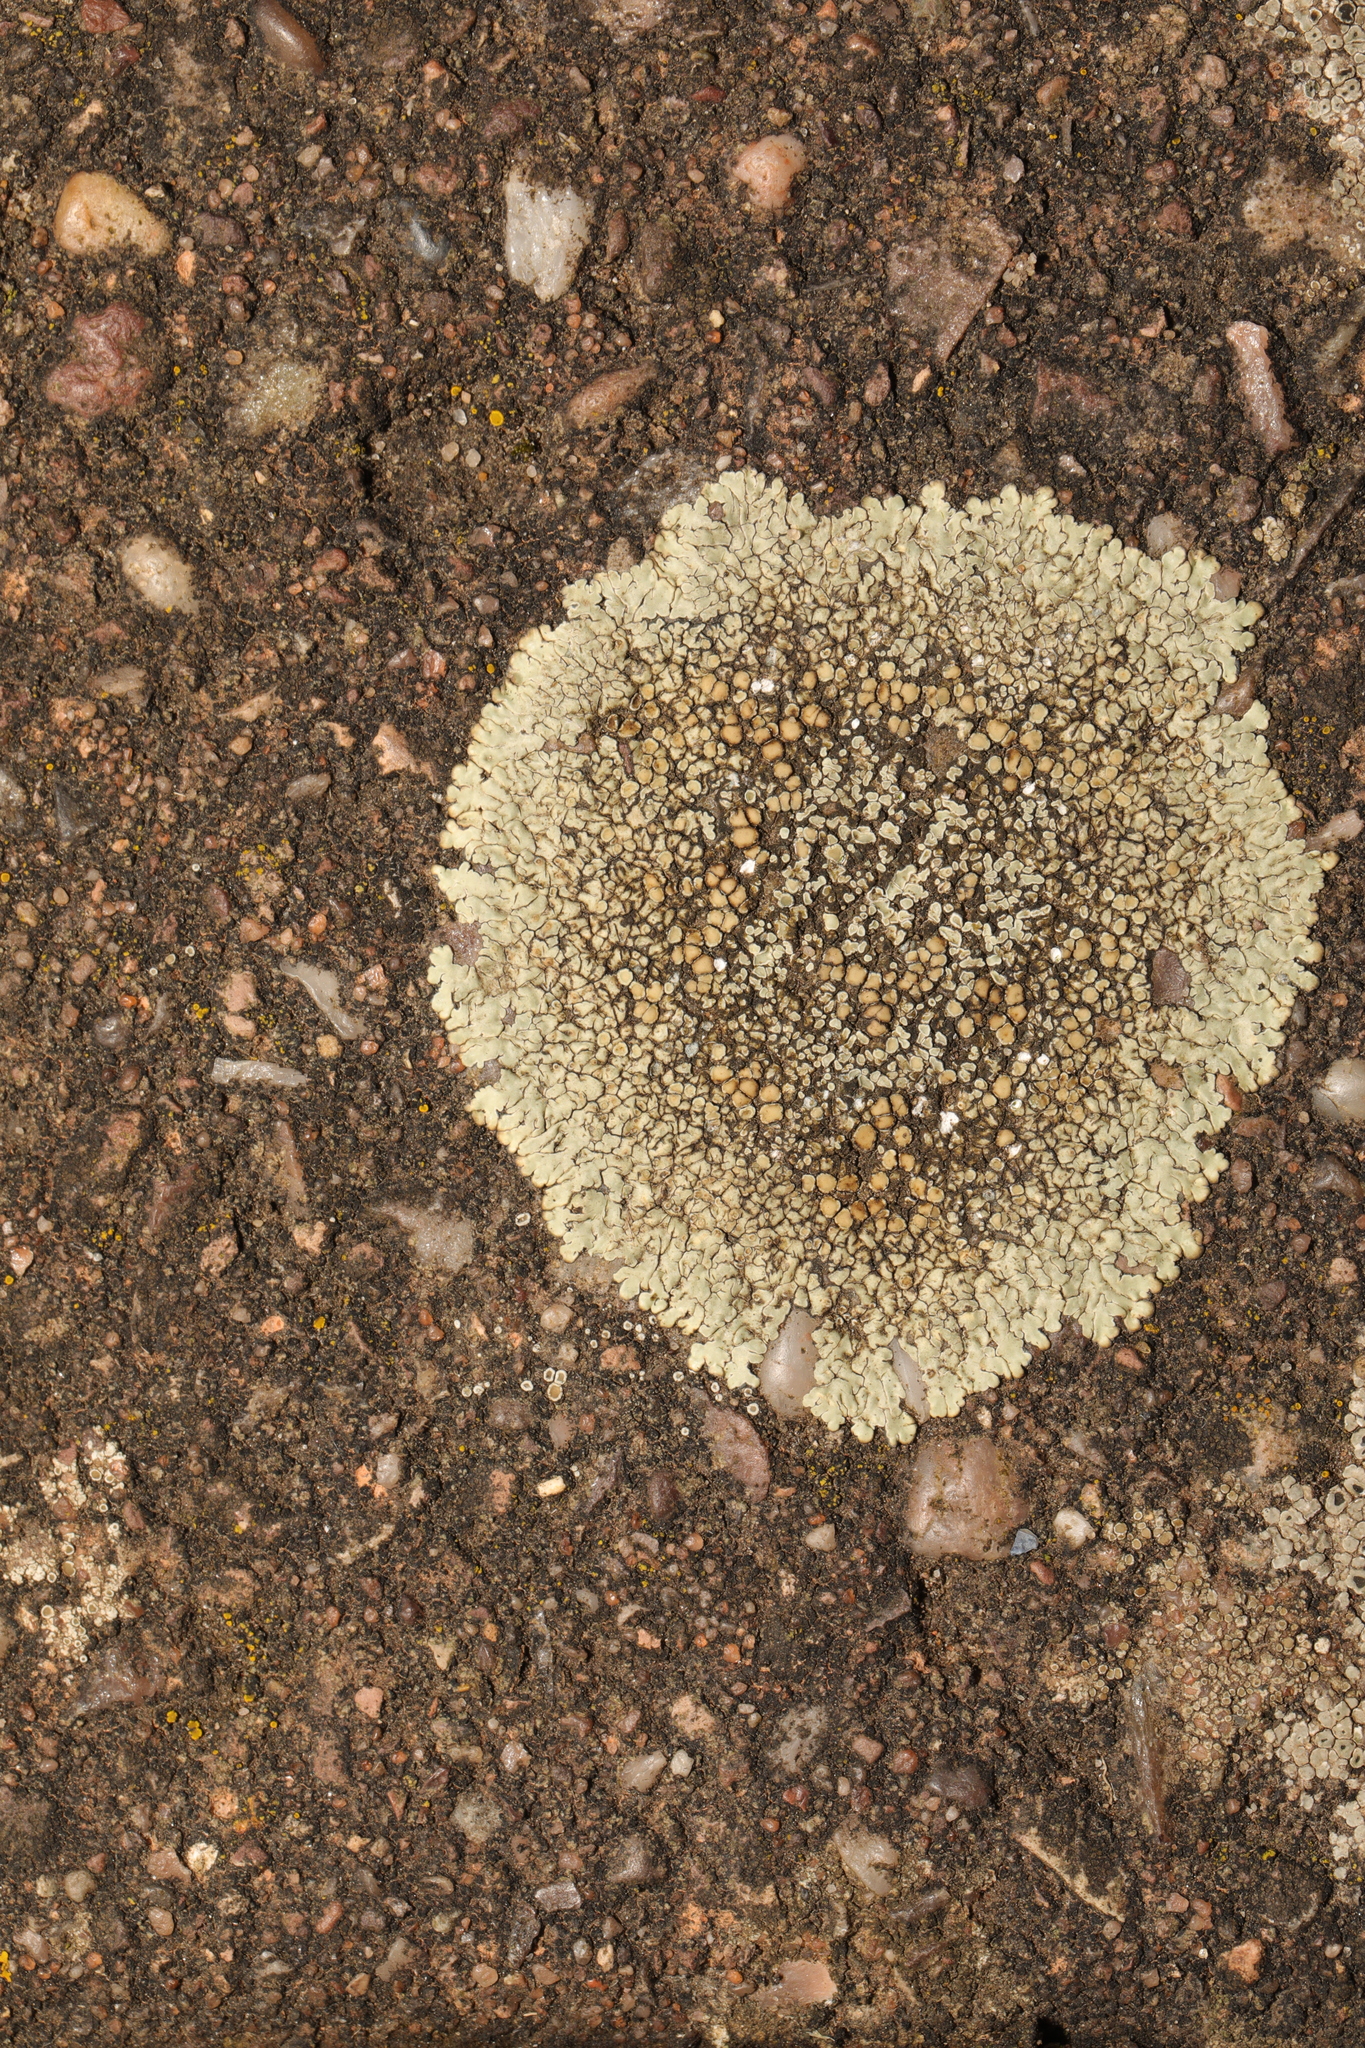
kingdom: Fungi
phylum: Ascomycota
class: Lecanoromycetes
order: Lecanorales
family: Lecanoraceae
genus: Protoparmeliopsis
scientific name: Protoparmeliopsis muralis
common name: Stonewall rim lichen
